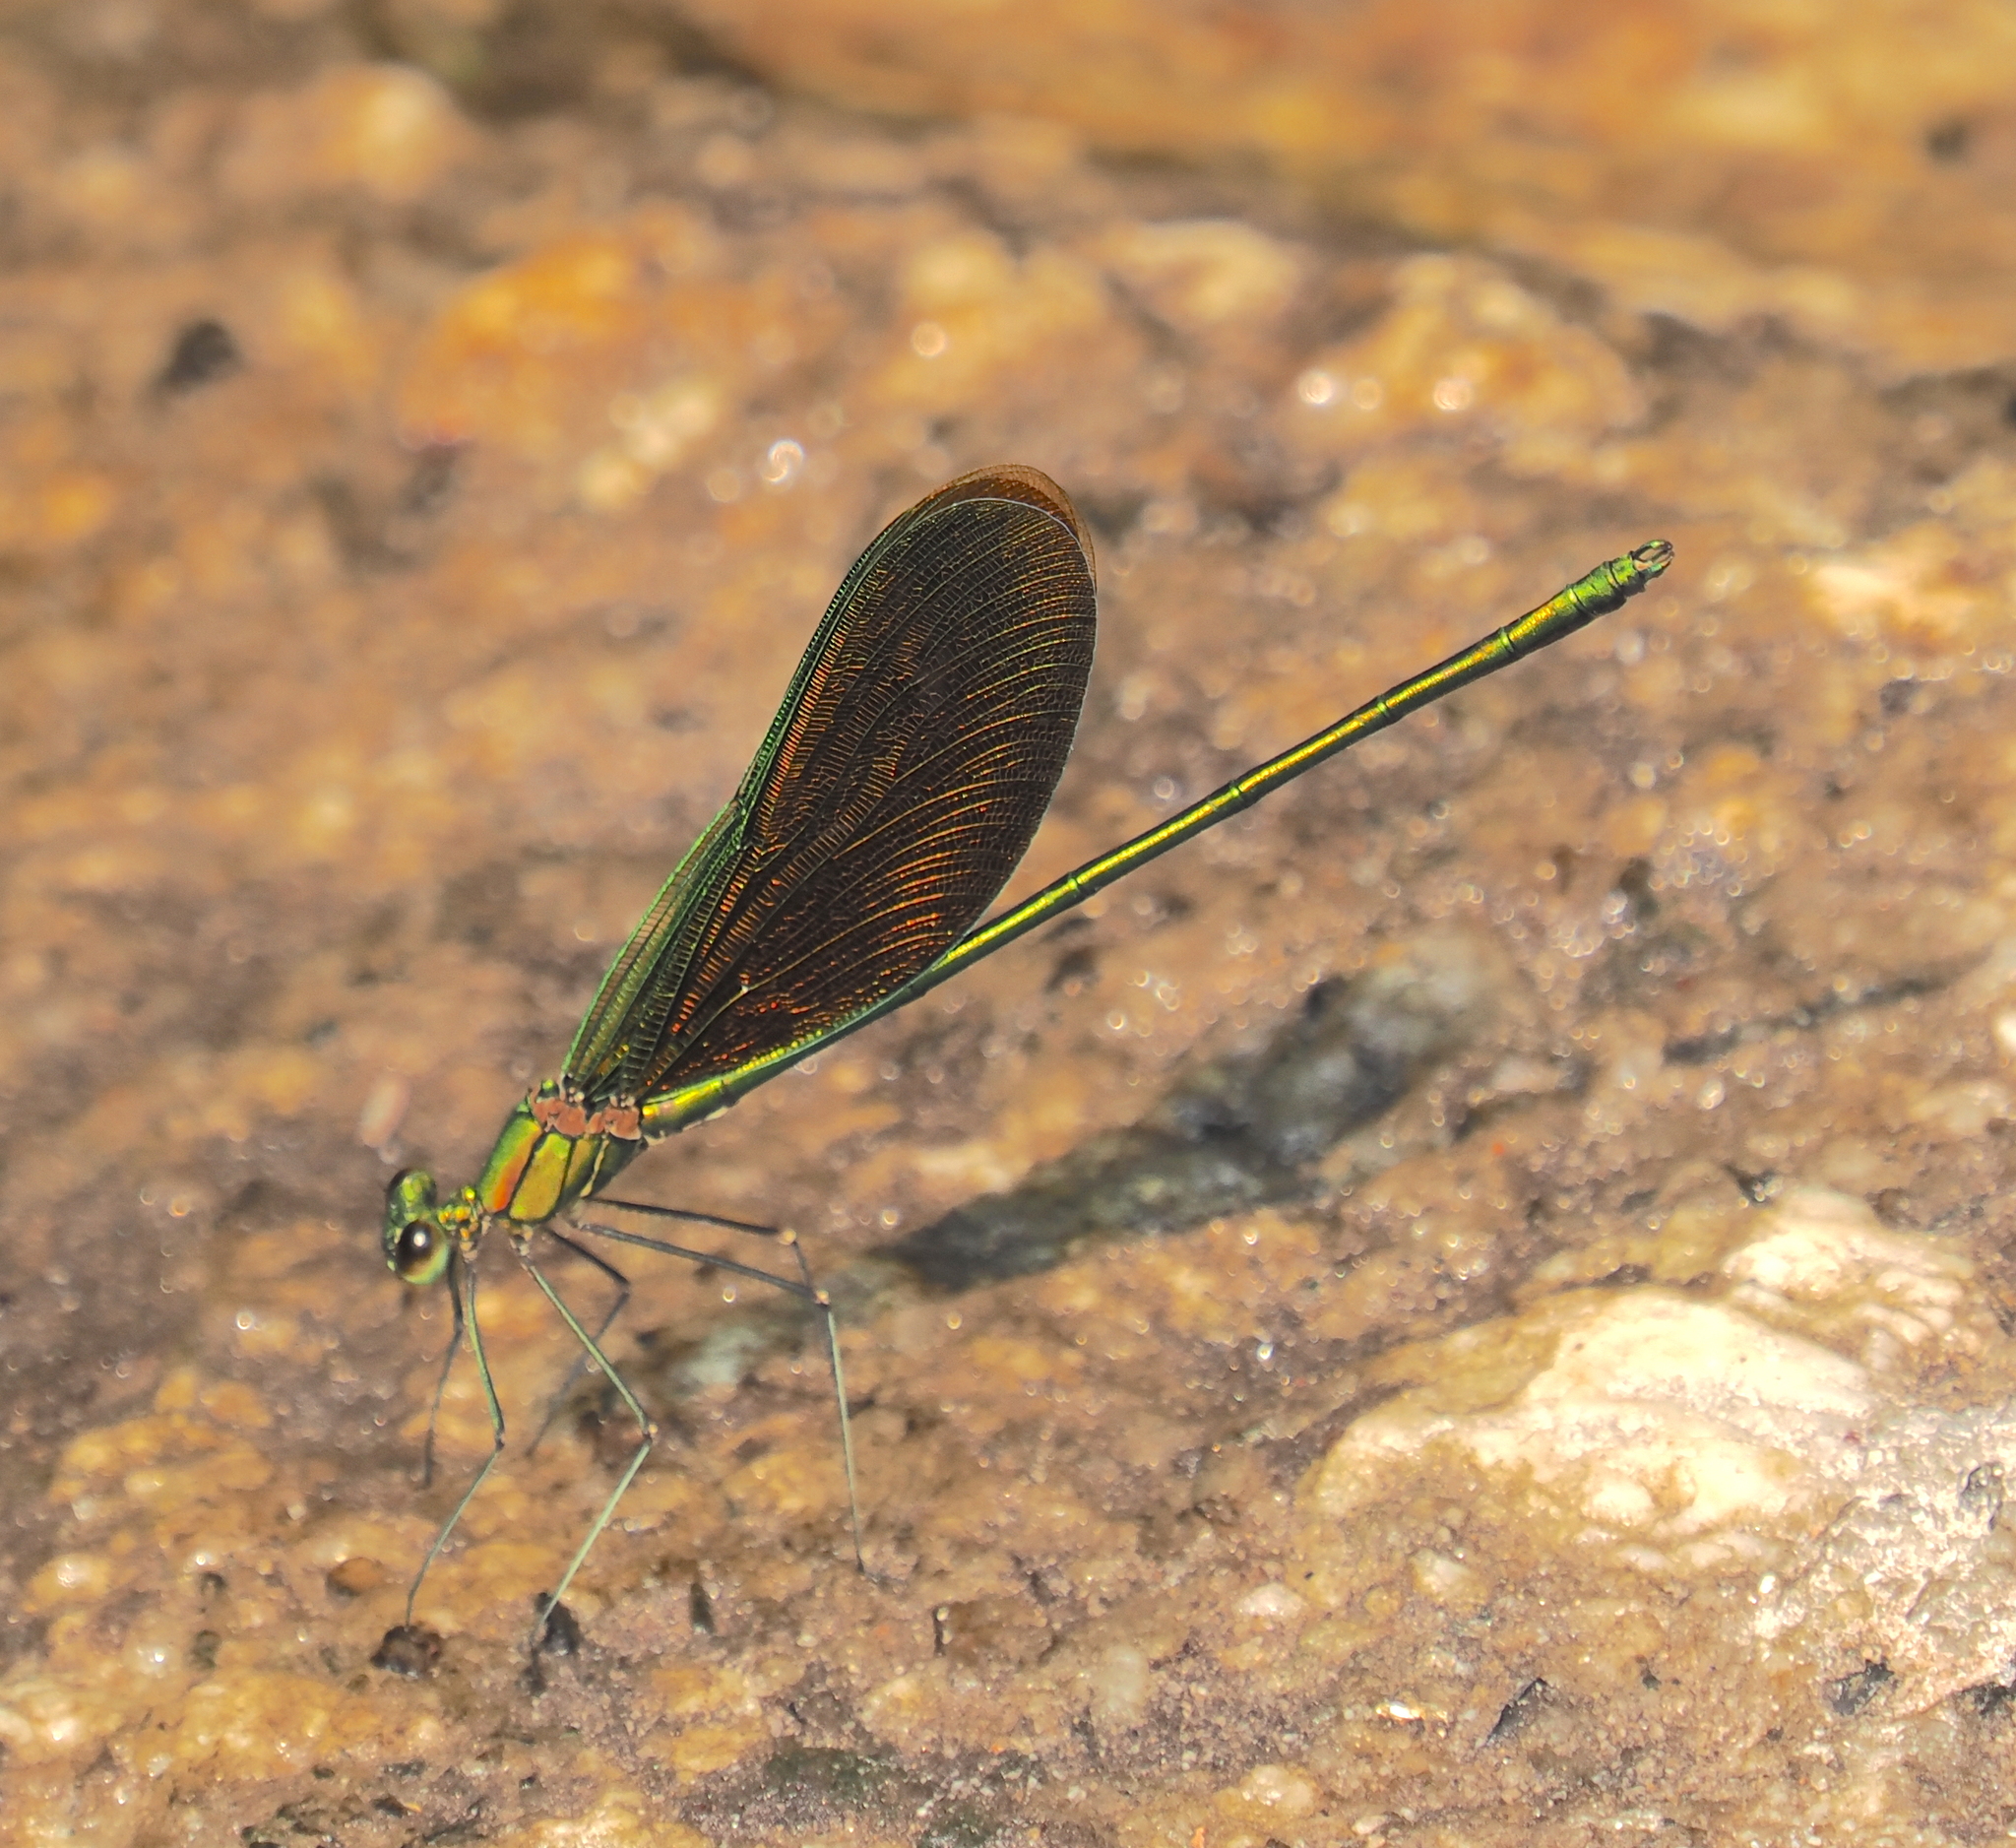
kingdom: Animalia
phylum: Arthropoda
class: Insecta
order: Odonata
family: Calopterygidae
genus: Neurobasis
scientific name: Neurobasis chinensis
